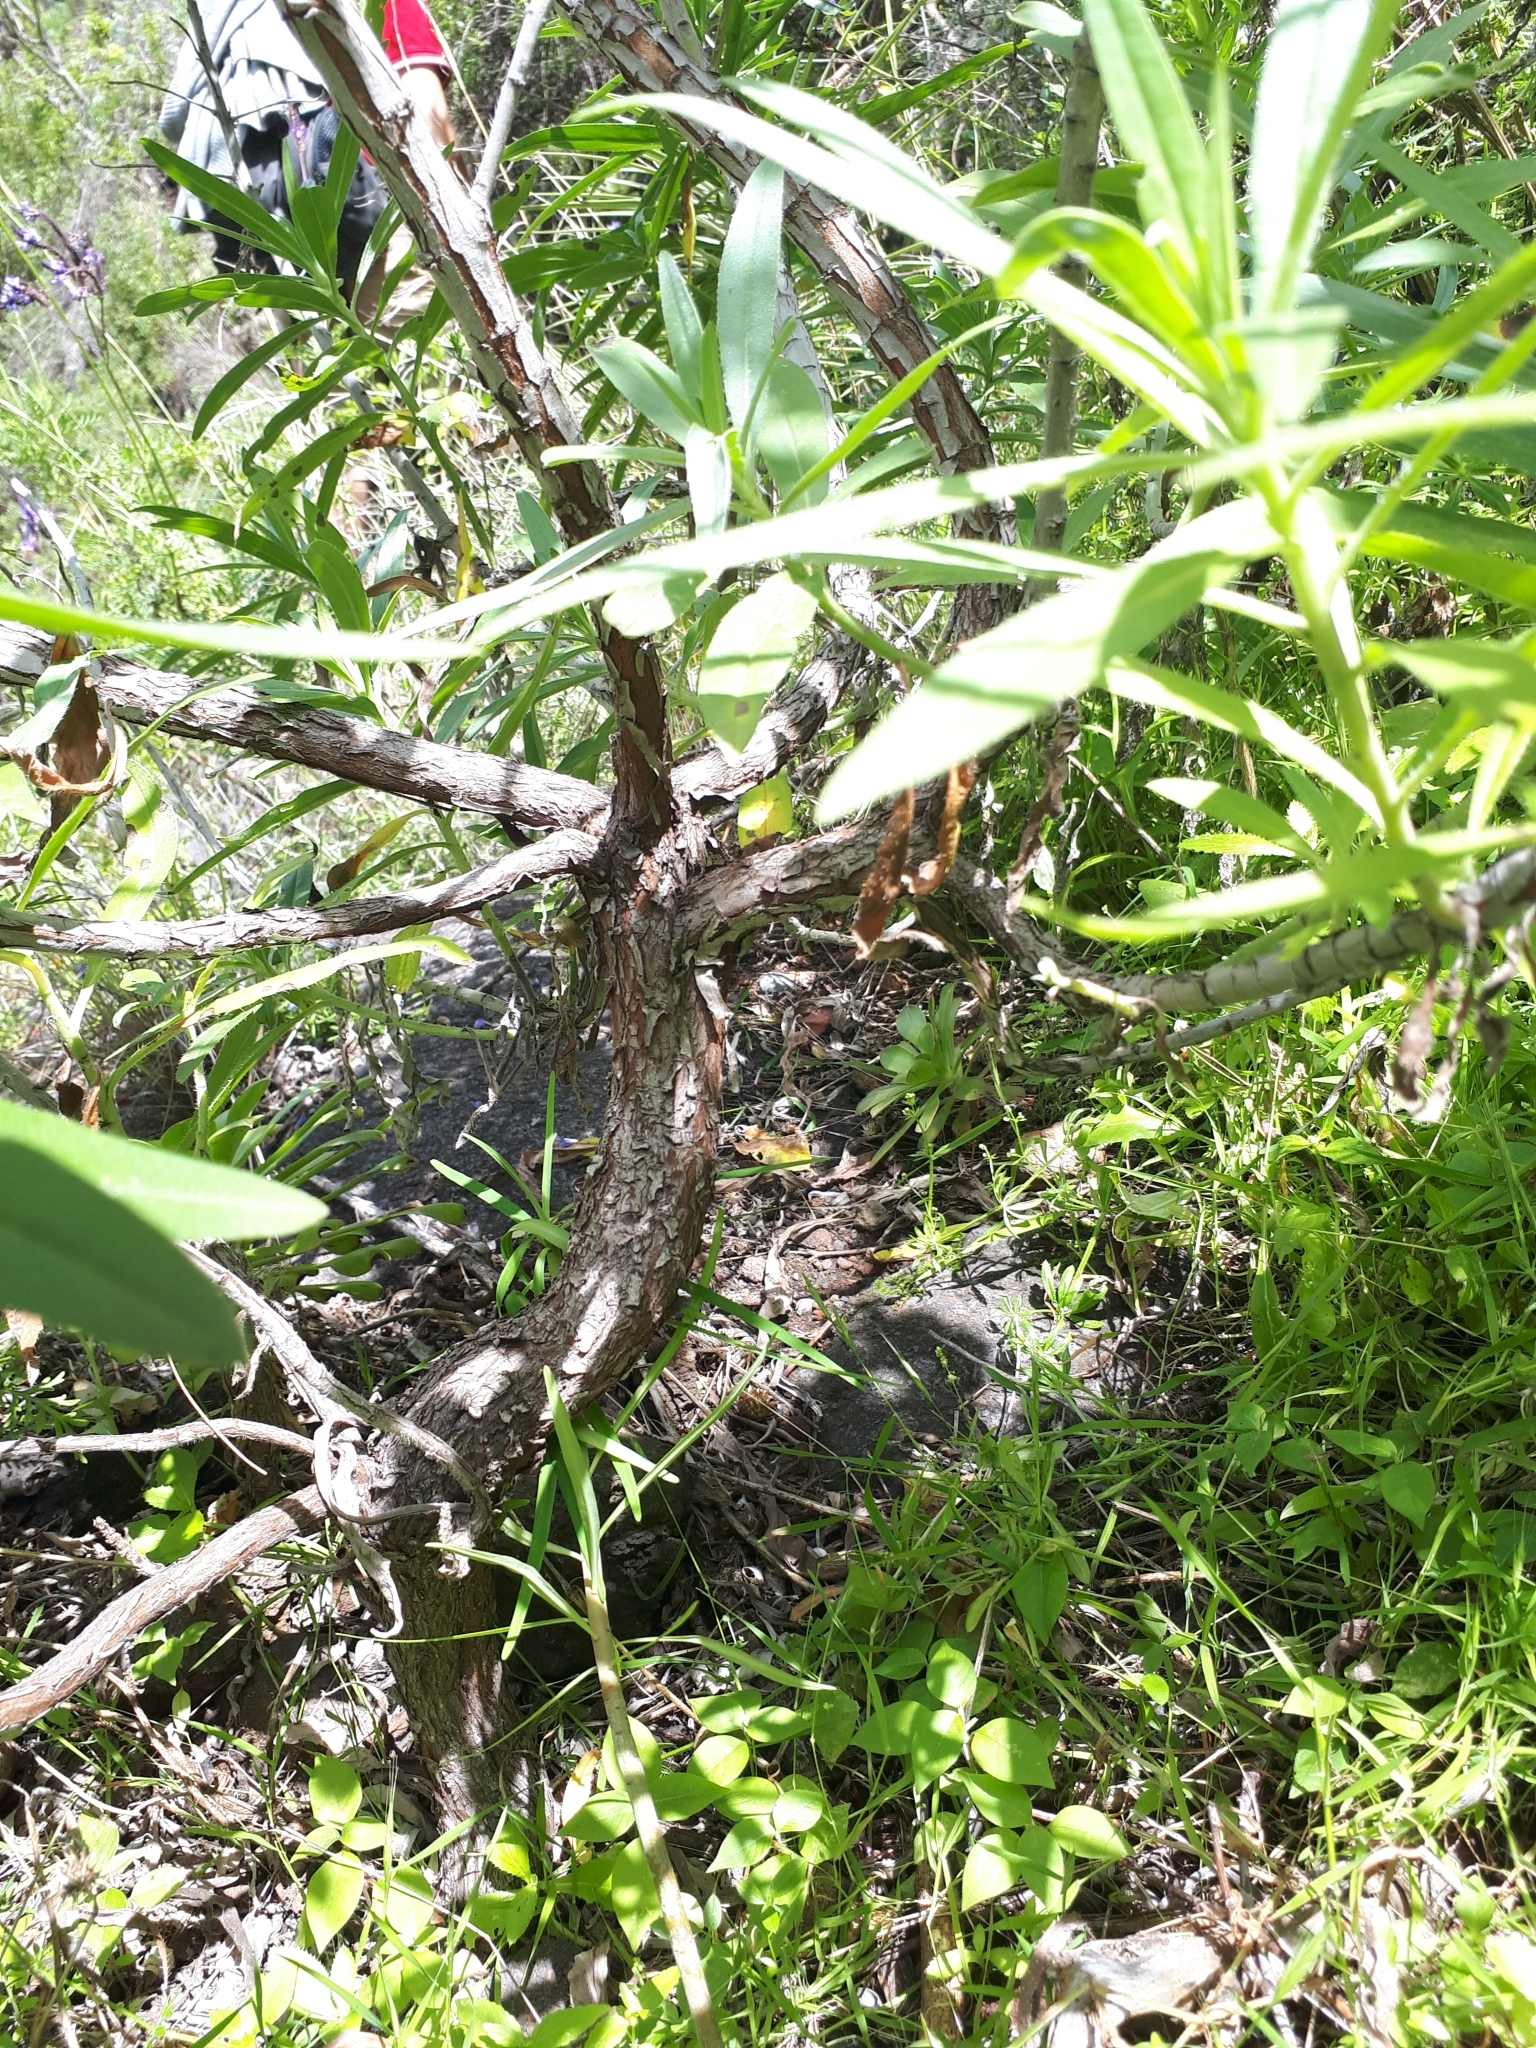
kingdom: Plantae
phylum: Tracheophyta
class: Magnoliopsida
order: Boraginales
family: Boraginaceae
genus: Echium
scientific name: Echium webbii
